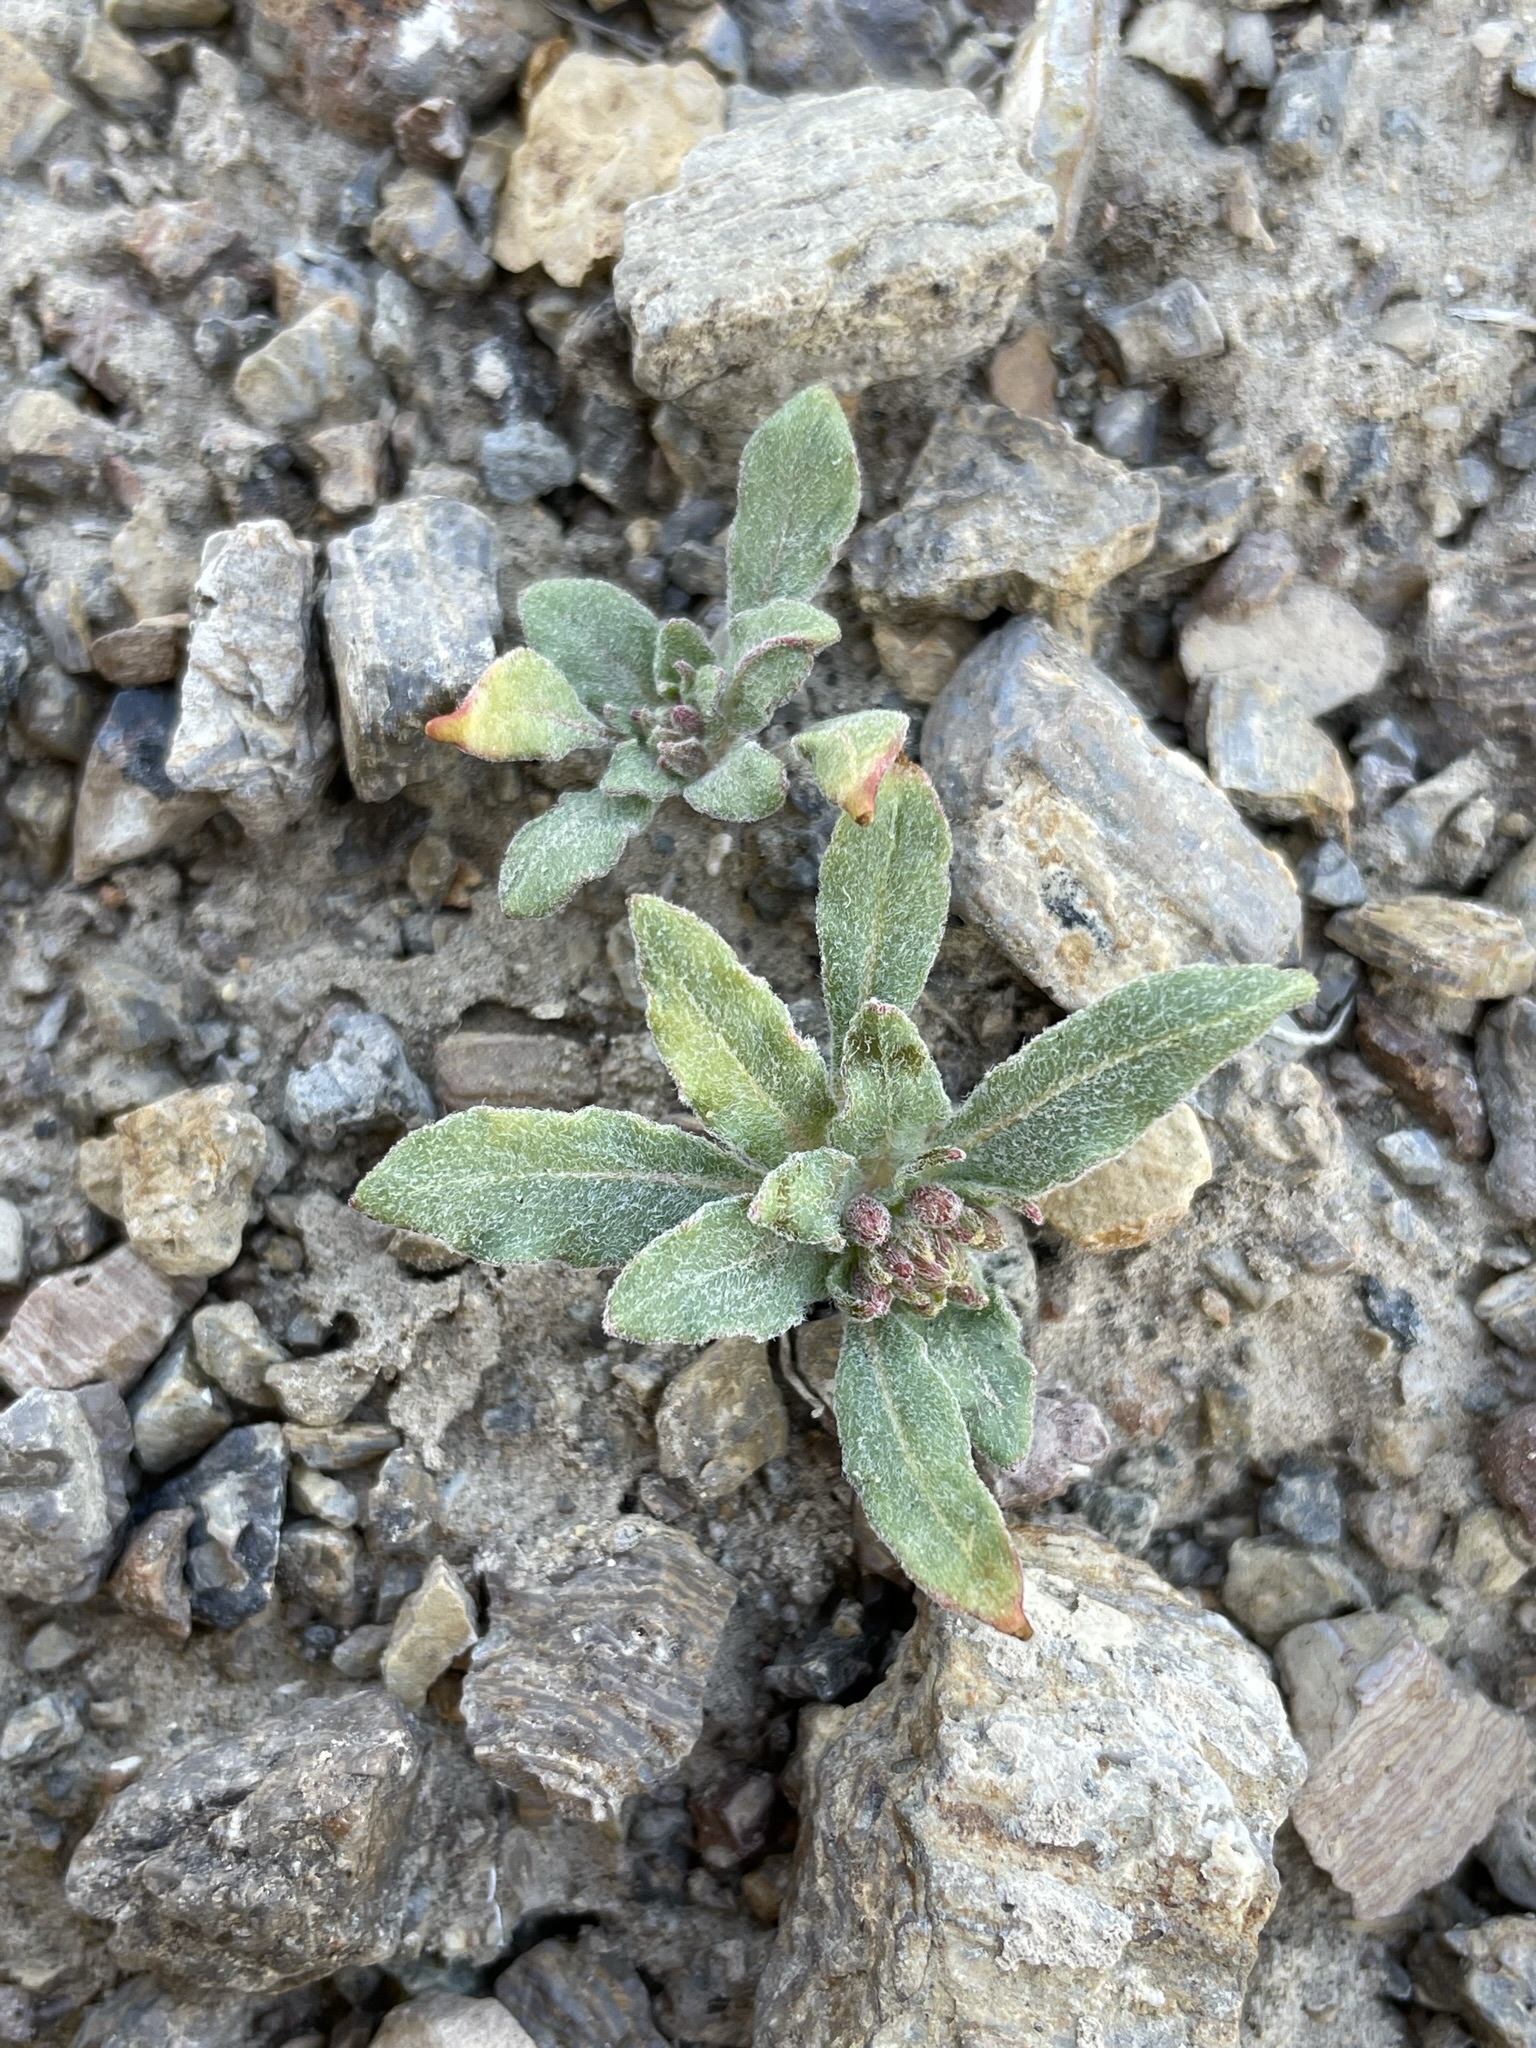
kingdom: Plantae
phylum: Tracheophyta
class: Magnoliopsida
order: Myrtales
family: Onagraceae
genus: Eremothera
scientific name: Eremothera boothii
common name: Booth's evening primrose
